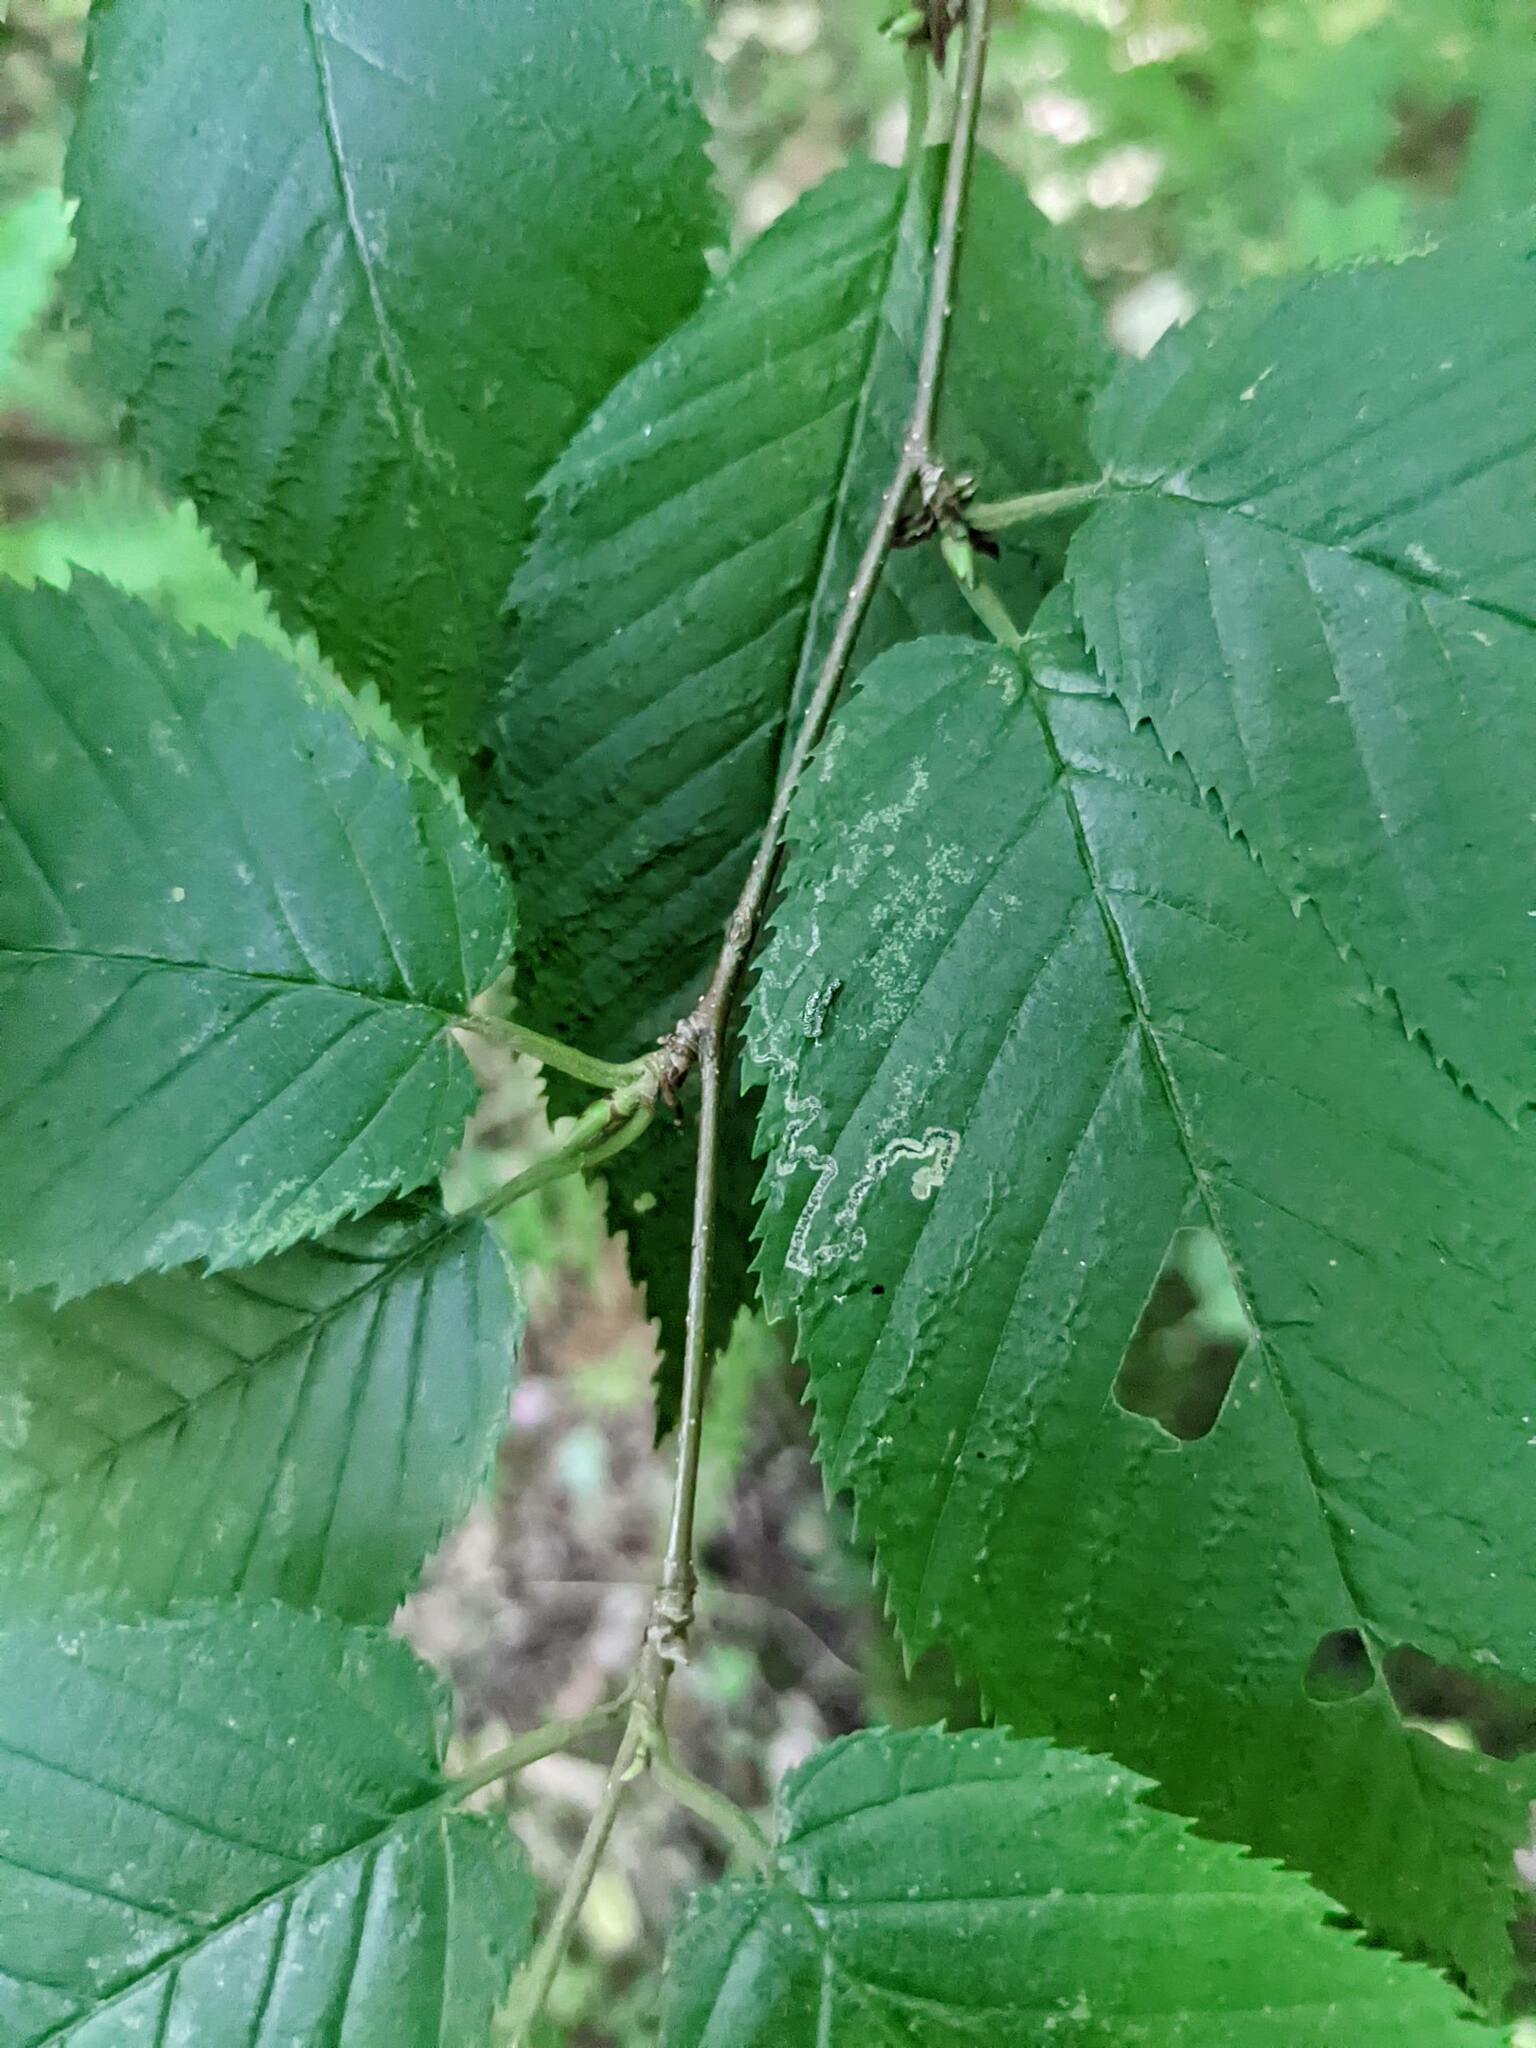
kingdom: Plantae
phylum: Tracheophyta
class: Magnoliopsida
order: Fagales
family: Betulaceae
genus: Betula
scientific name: Betula alleghaniensis
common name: Yellow birch
